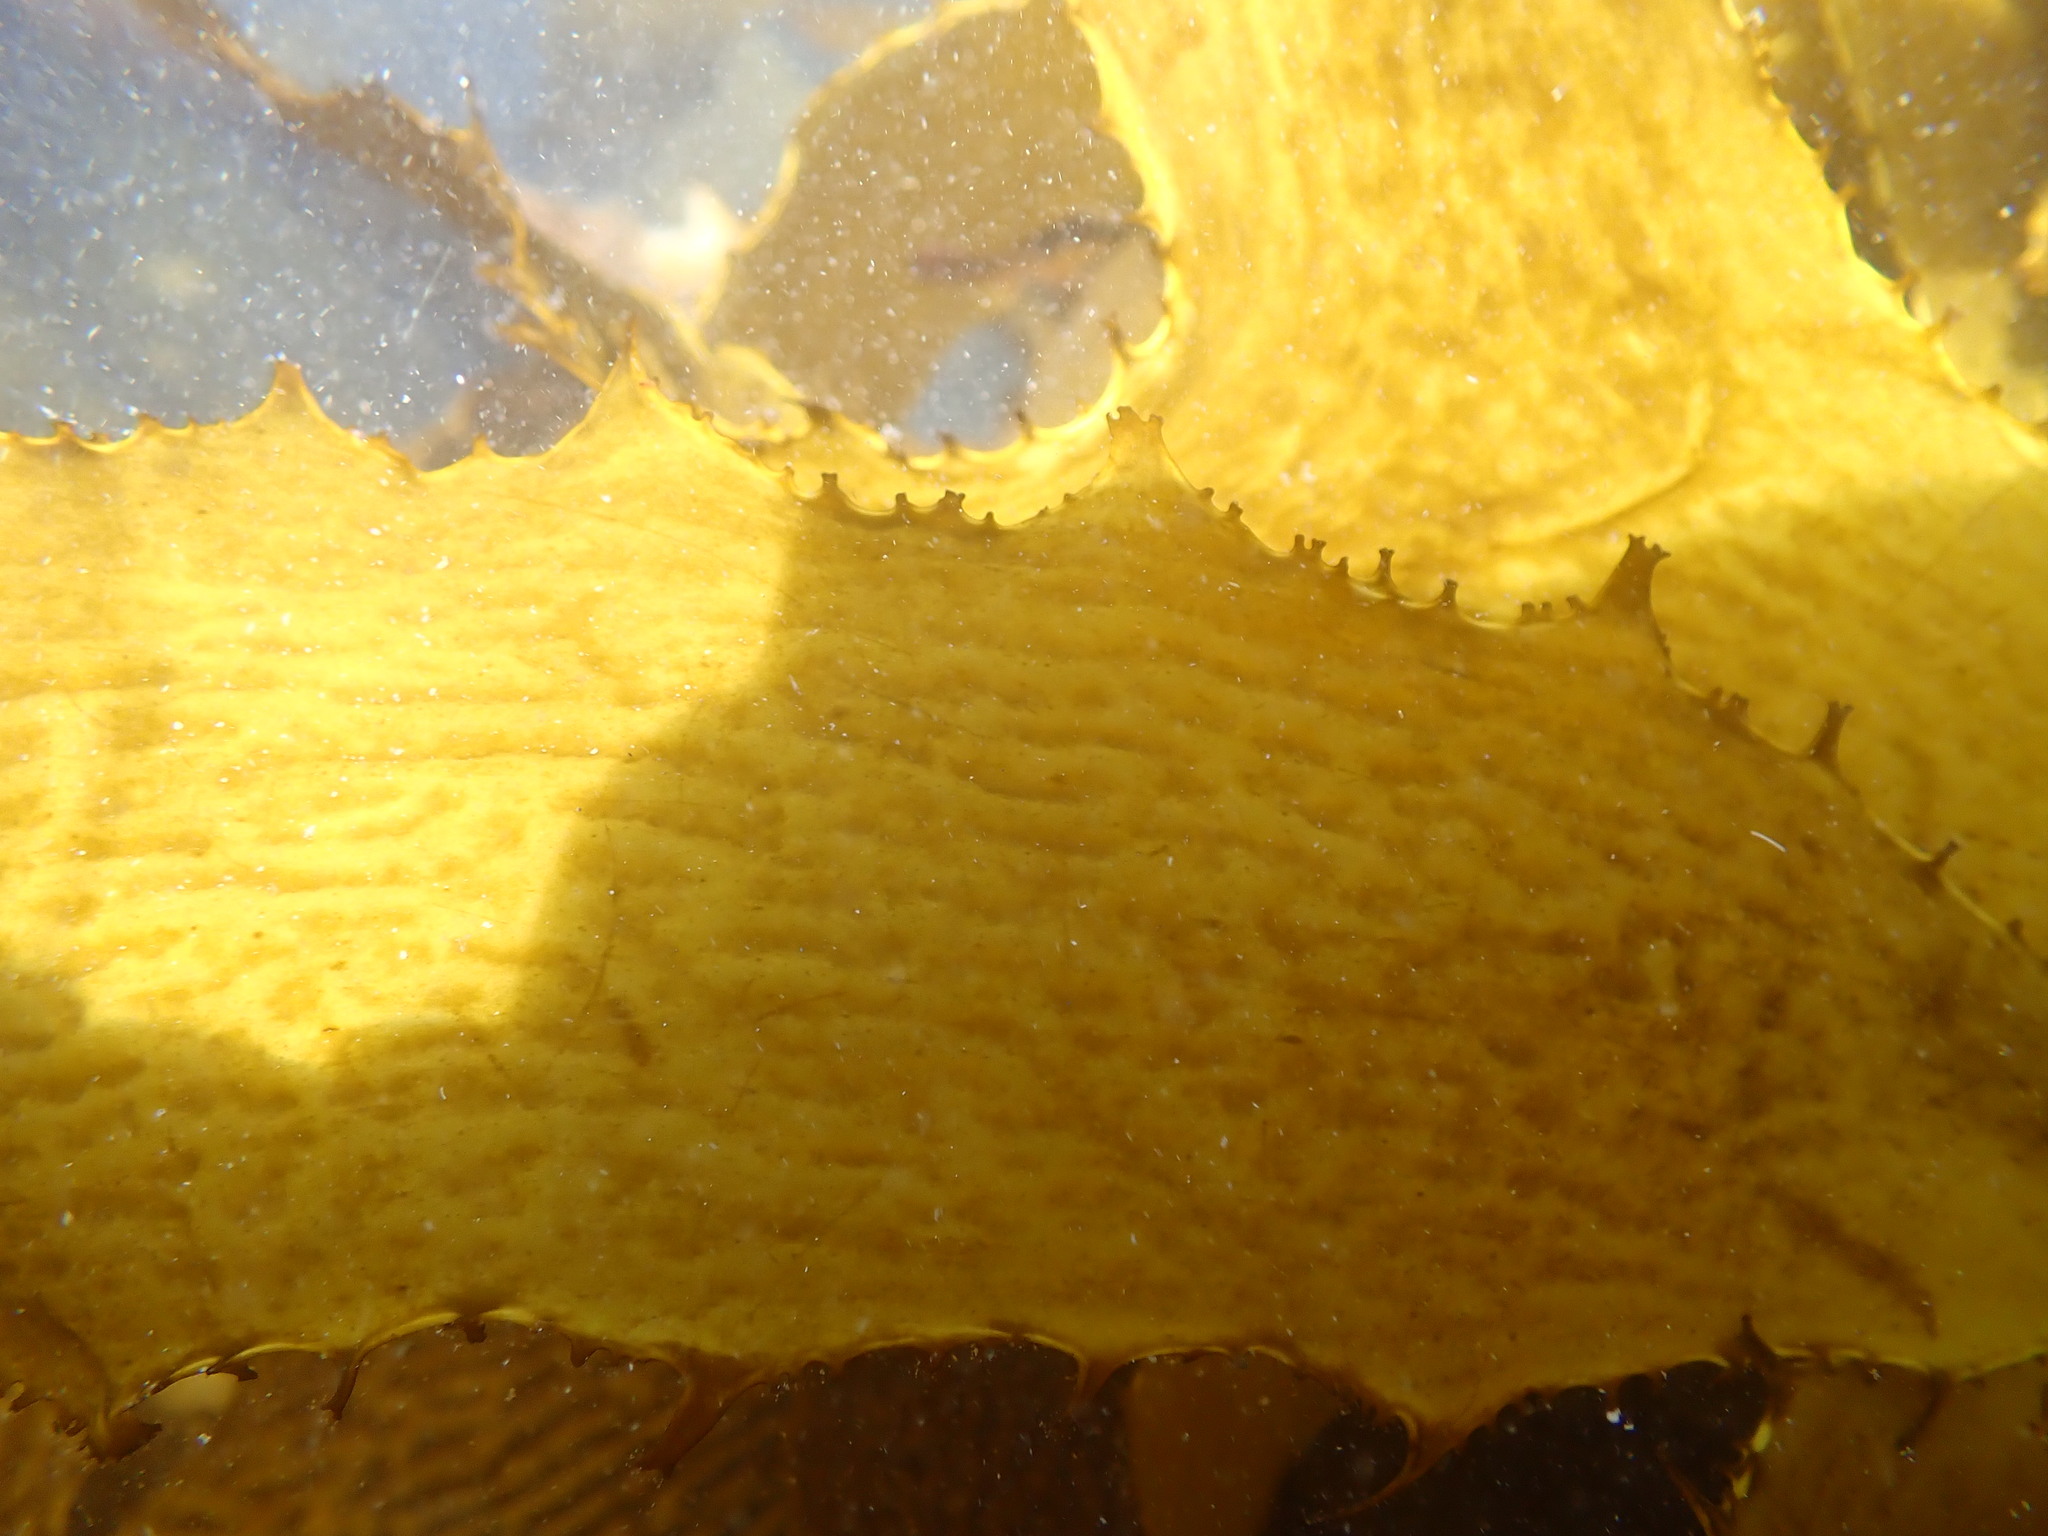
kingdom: Chromista
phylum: Ochrophyta
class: Phaeophyceae
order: Laminariales
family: Lessoniaceae
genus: Ecklonia
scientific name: Ecklonia radiata
